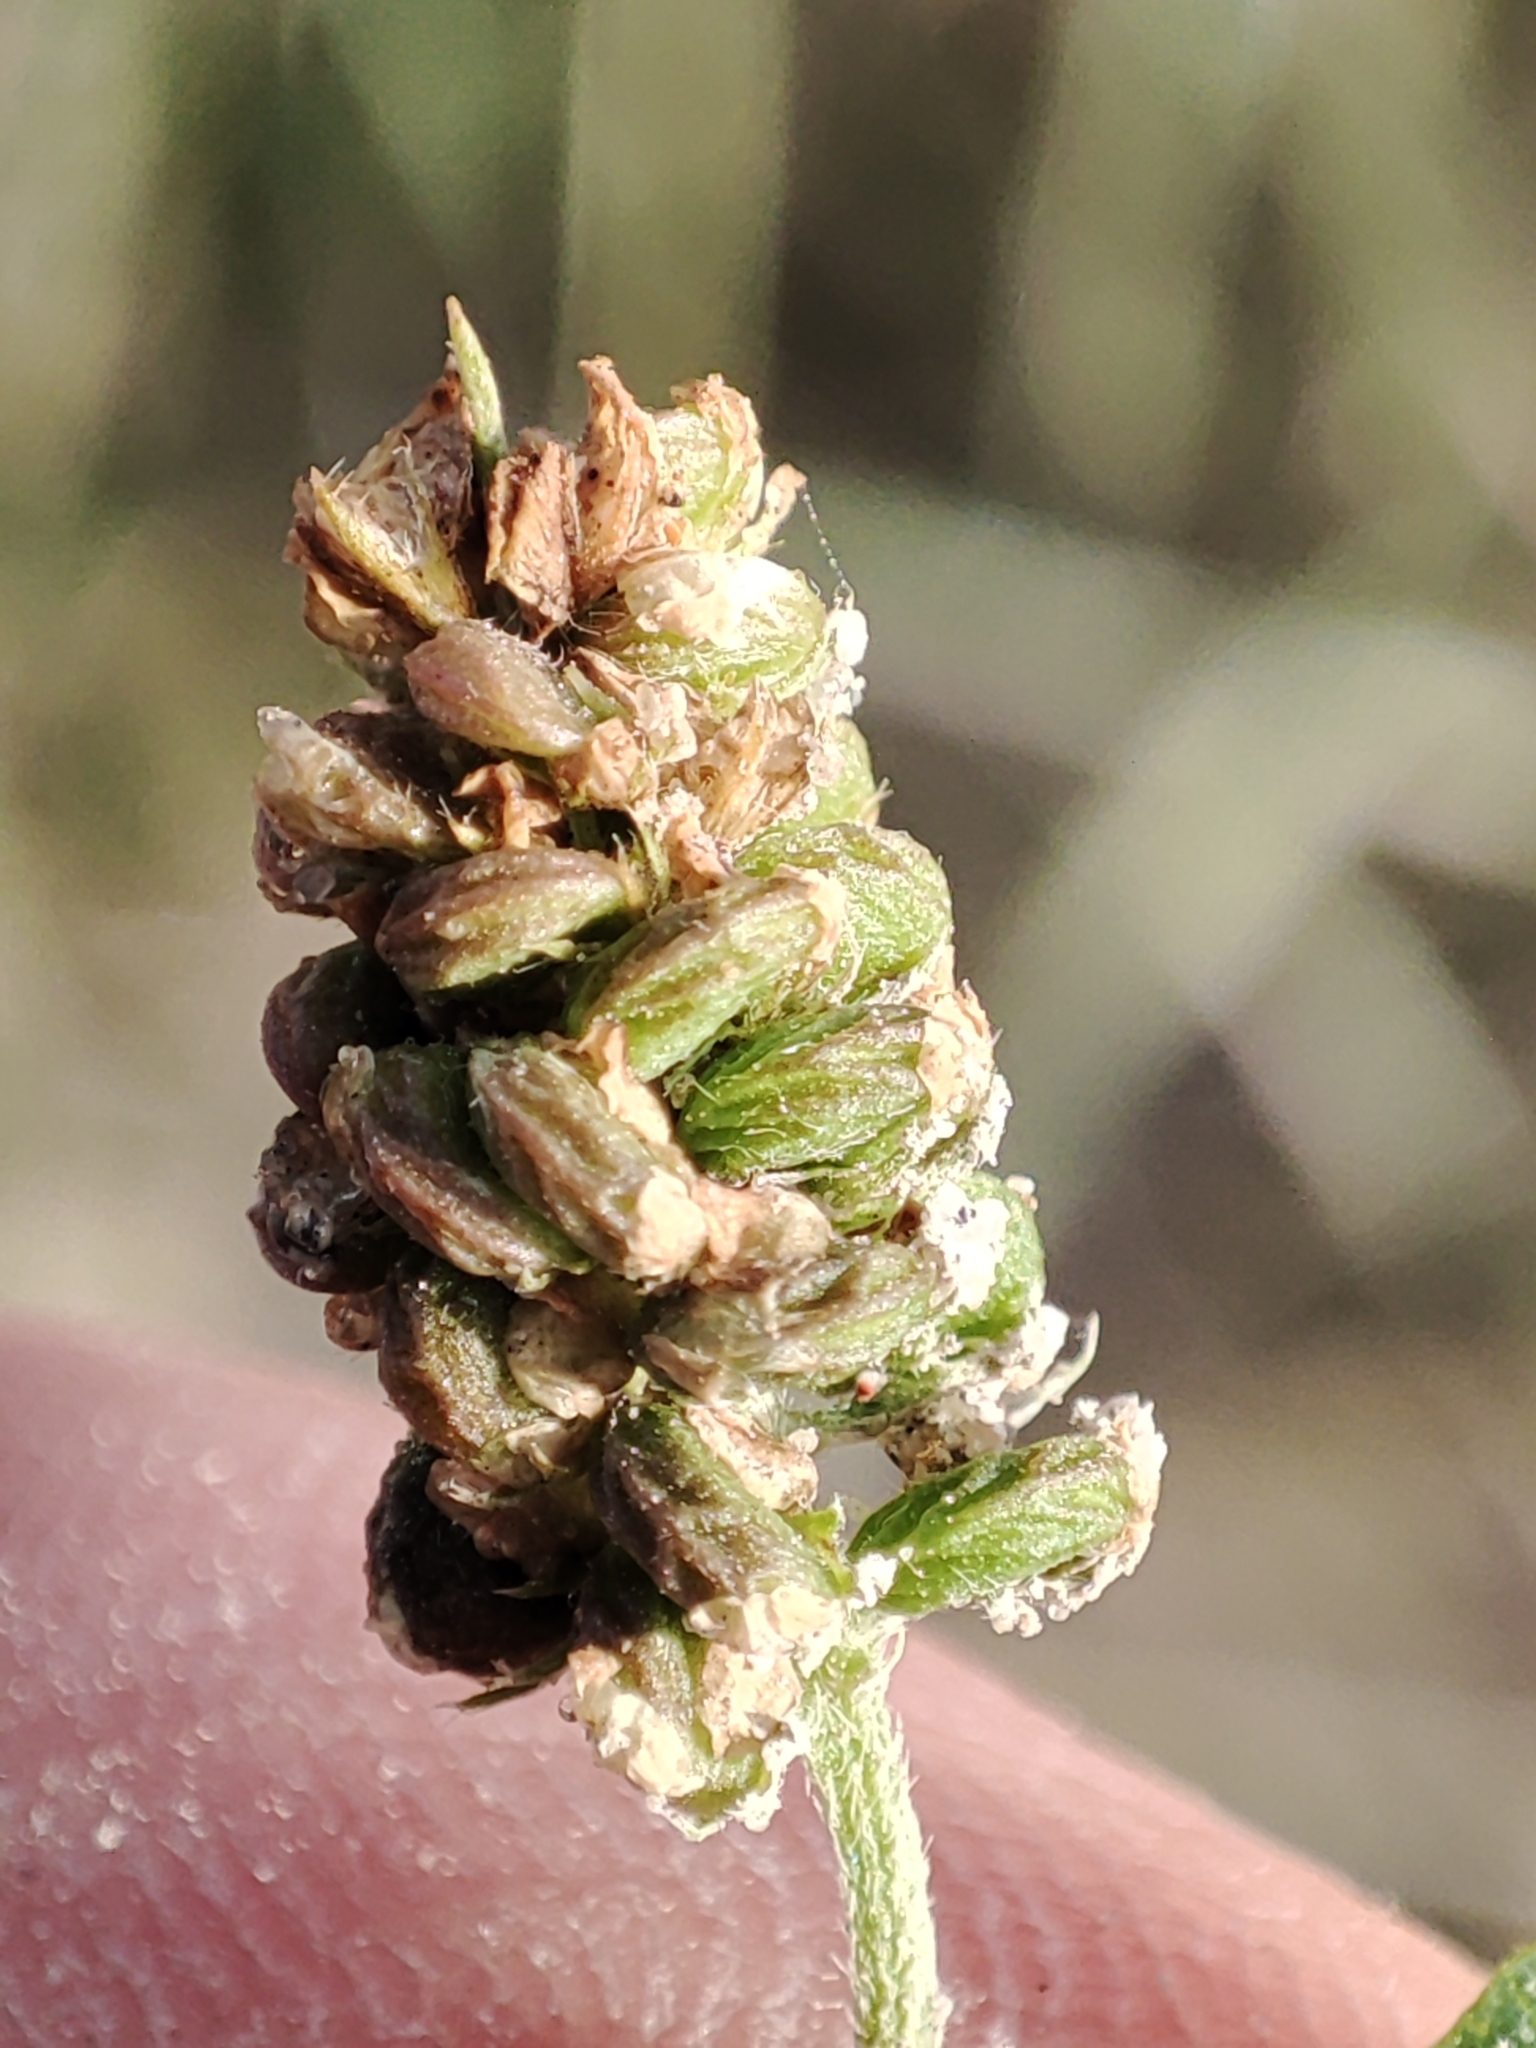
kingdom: Plantae
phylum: Tracheophyta
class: Magnoliopsida
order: Fabales
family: Fabaceae
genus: Medicago
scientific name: Medicago lupulina
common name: Black medick
